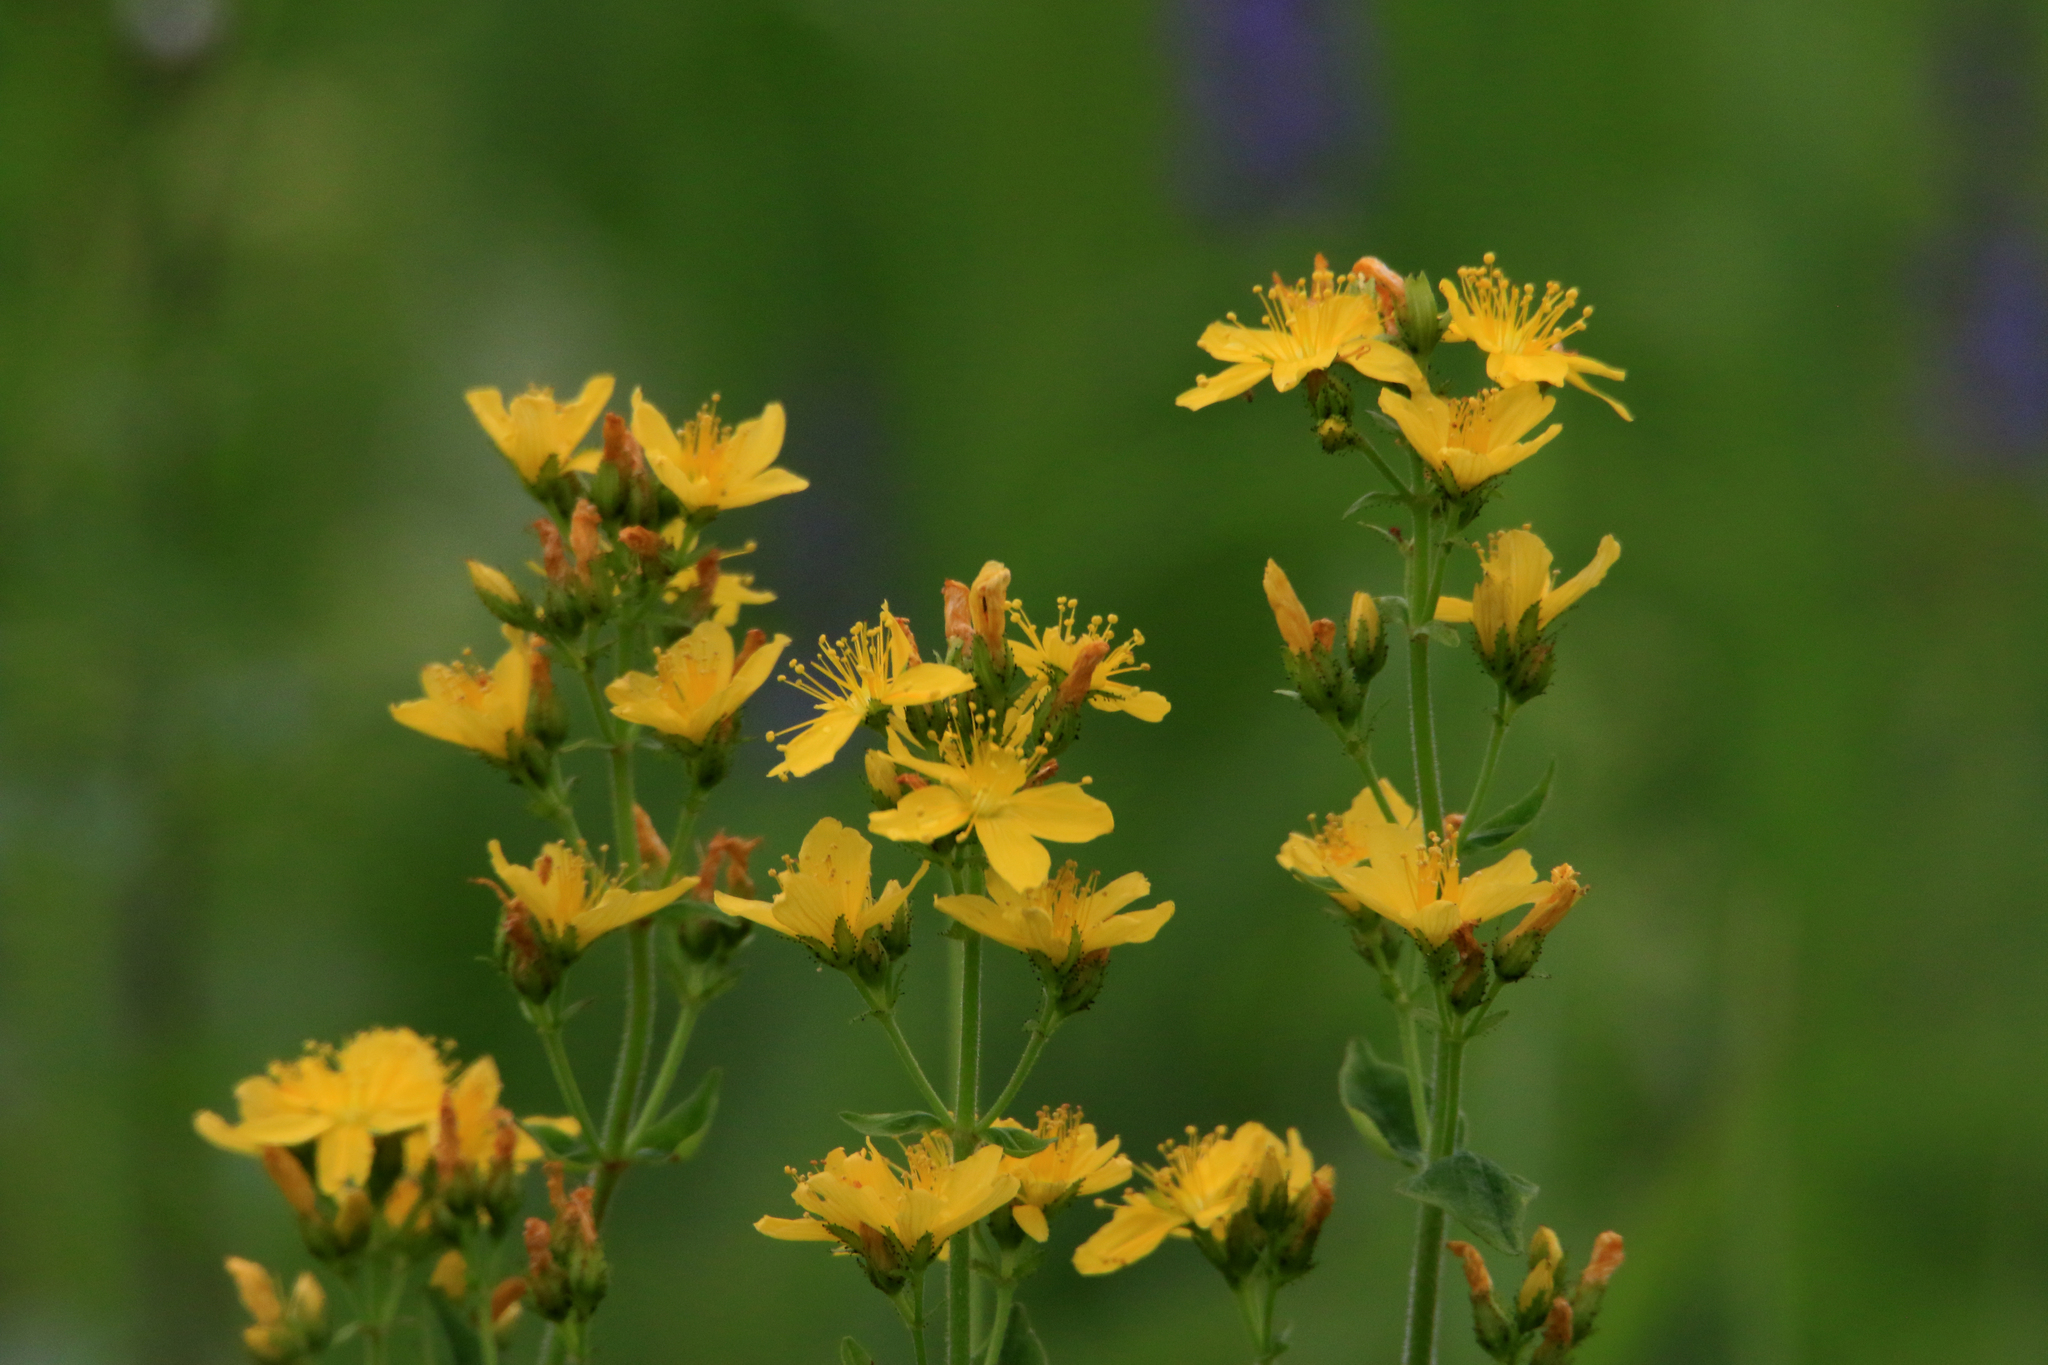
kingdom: Plantae
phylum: Tracheophyta
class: Magnoliopsida
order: Malpighiales
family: Hypericaceae
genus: Hypericum
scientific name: Hypericum hirsutum
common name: Hairy st. john's-wort
